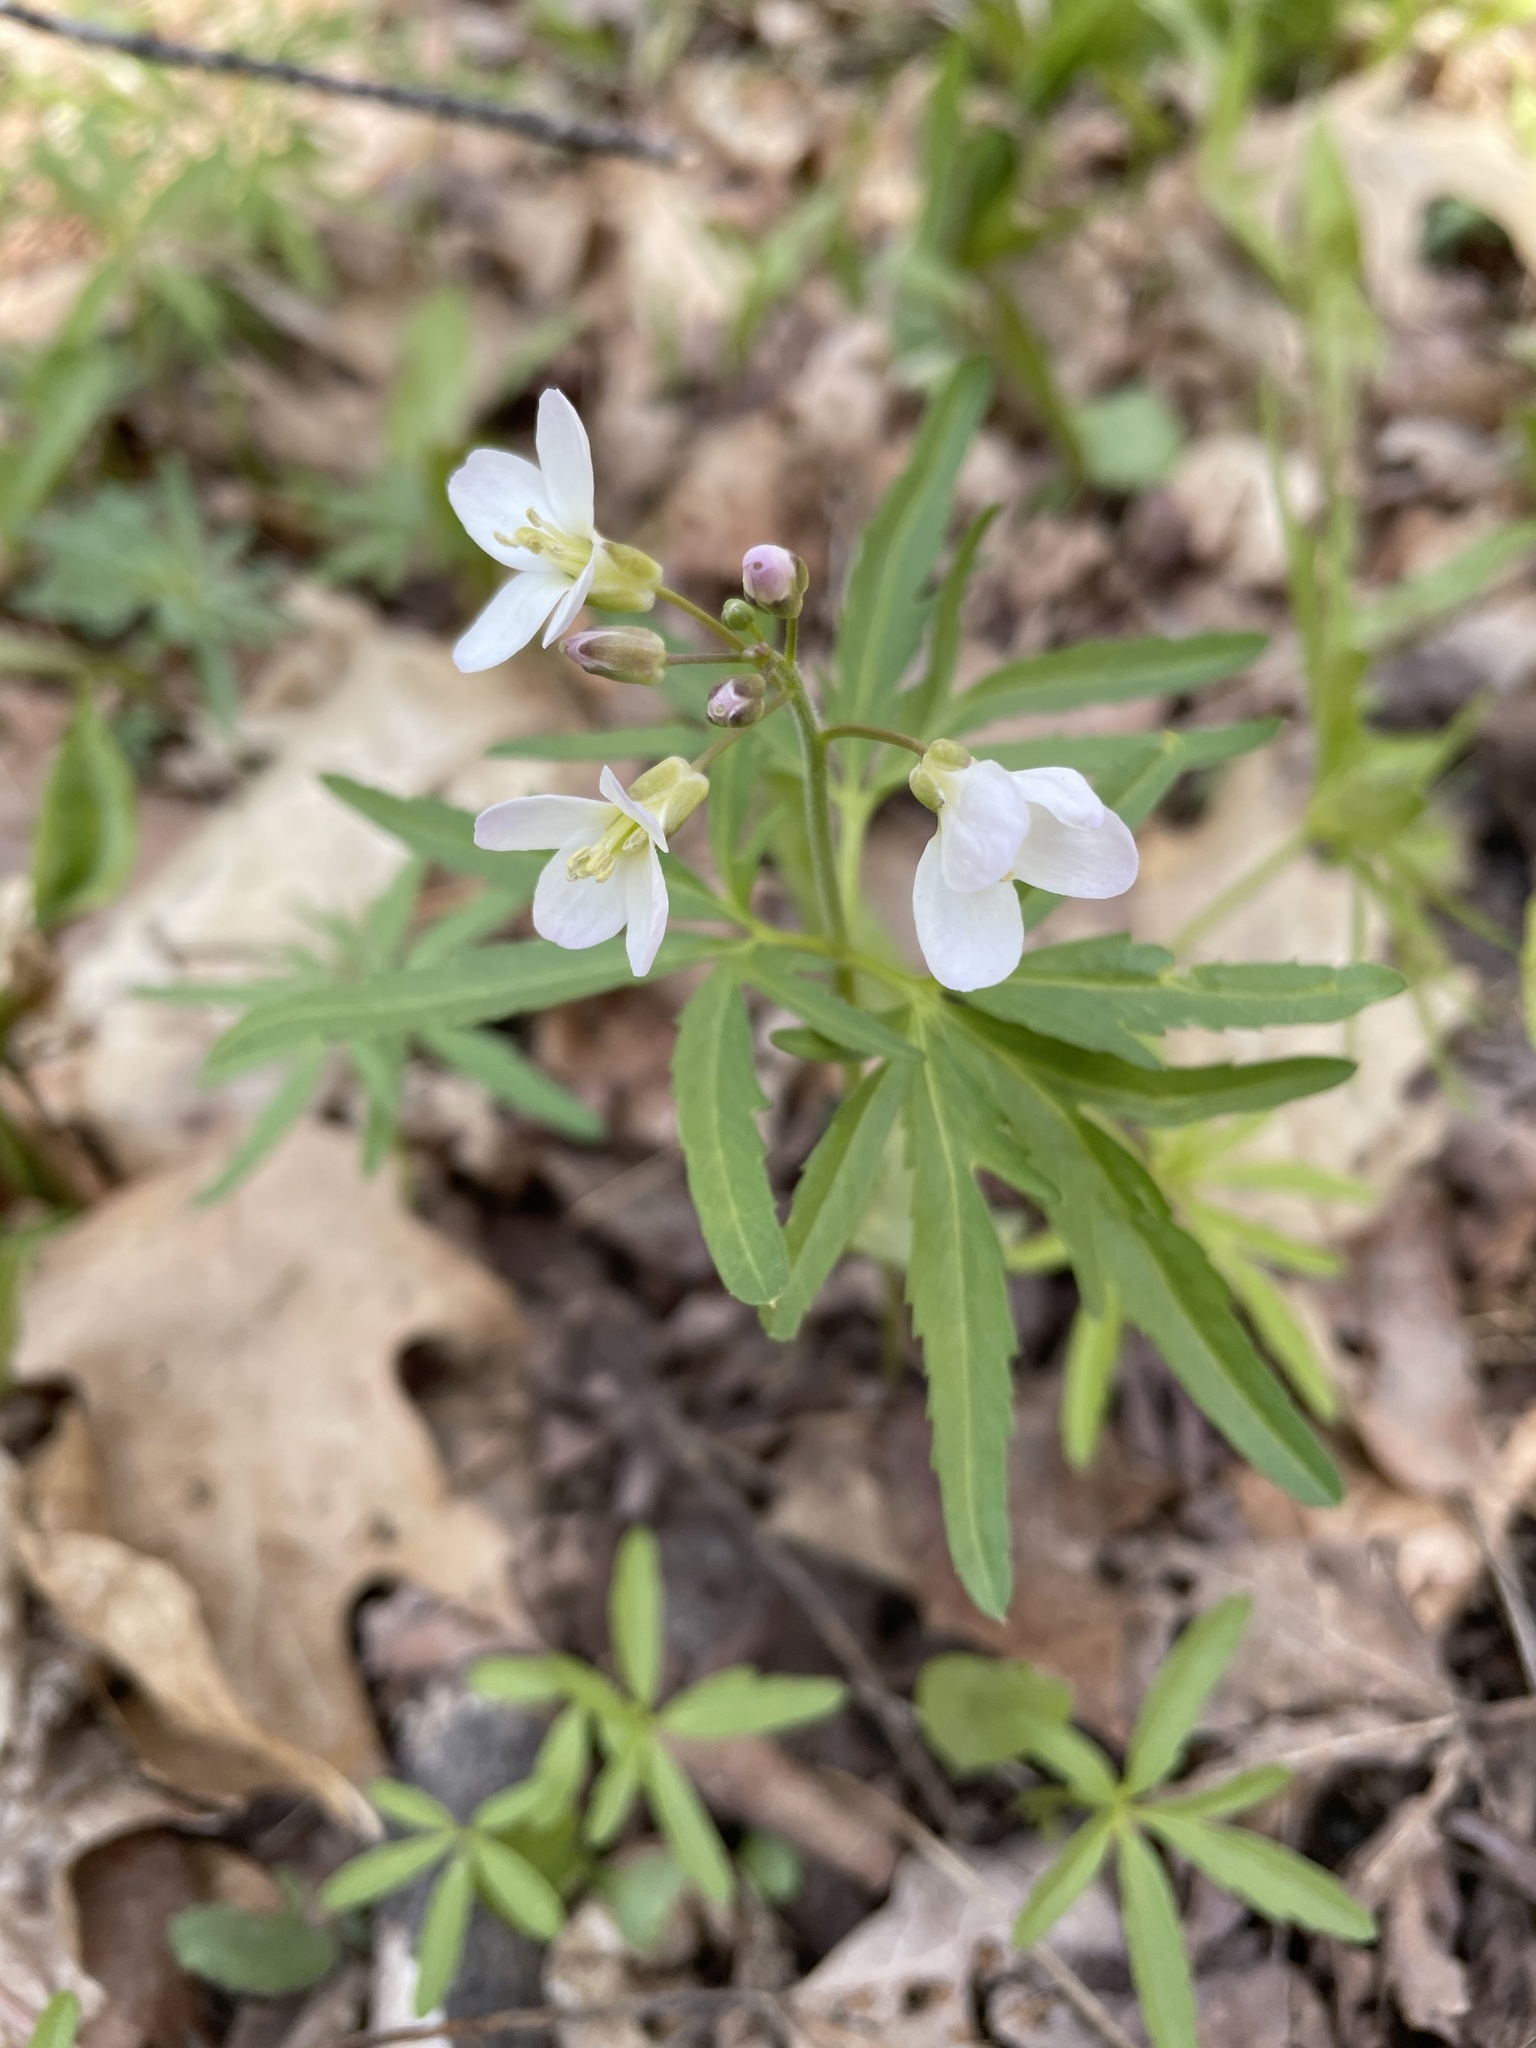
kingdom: Plantae
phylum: Tracheophyta
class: Magnoliopsida
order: Brassicales
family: Brassicaceae
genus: Cardamine
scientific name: Cardamine concatenata
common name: Cut-leaf toothcup
